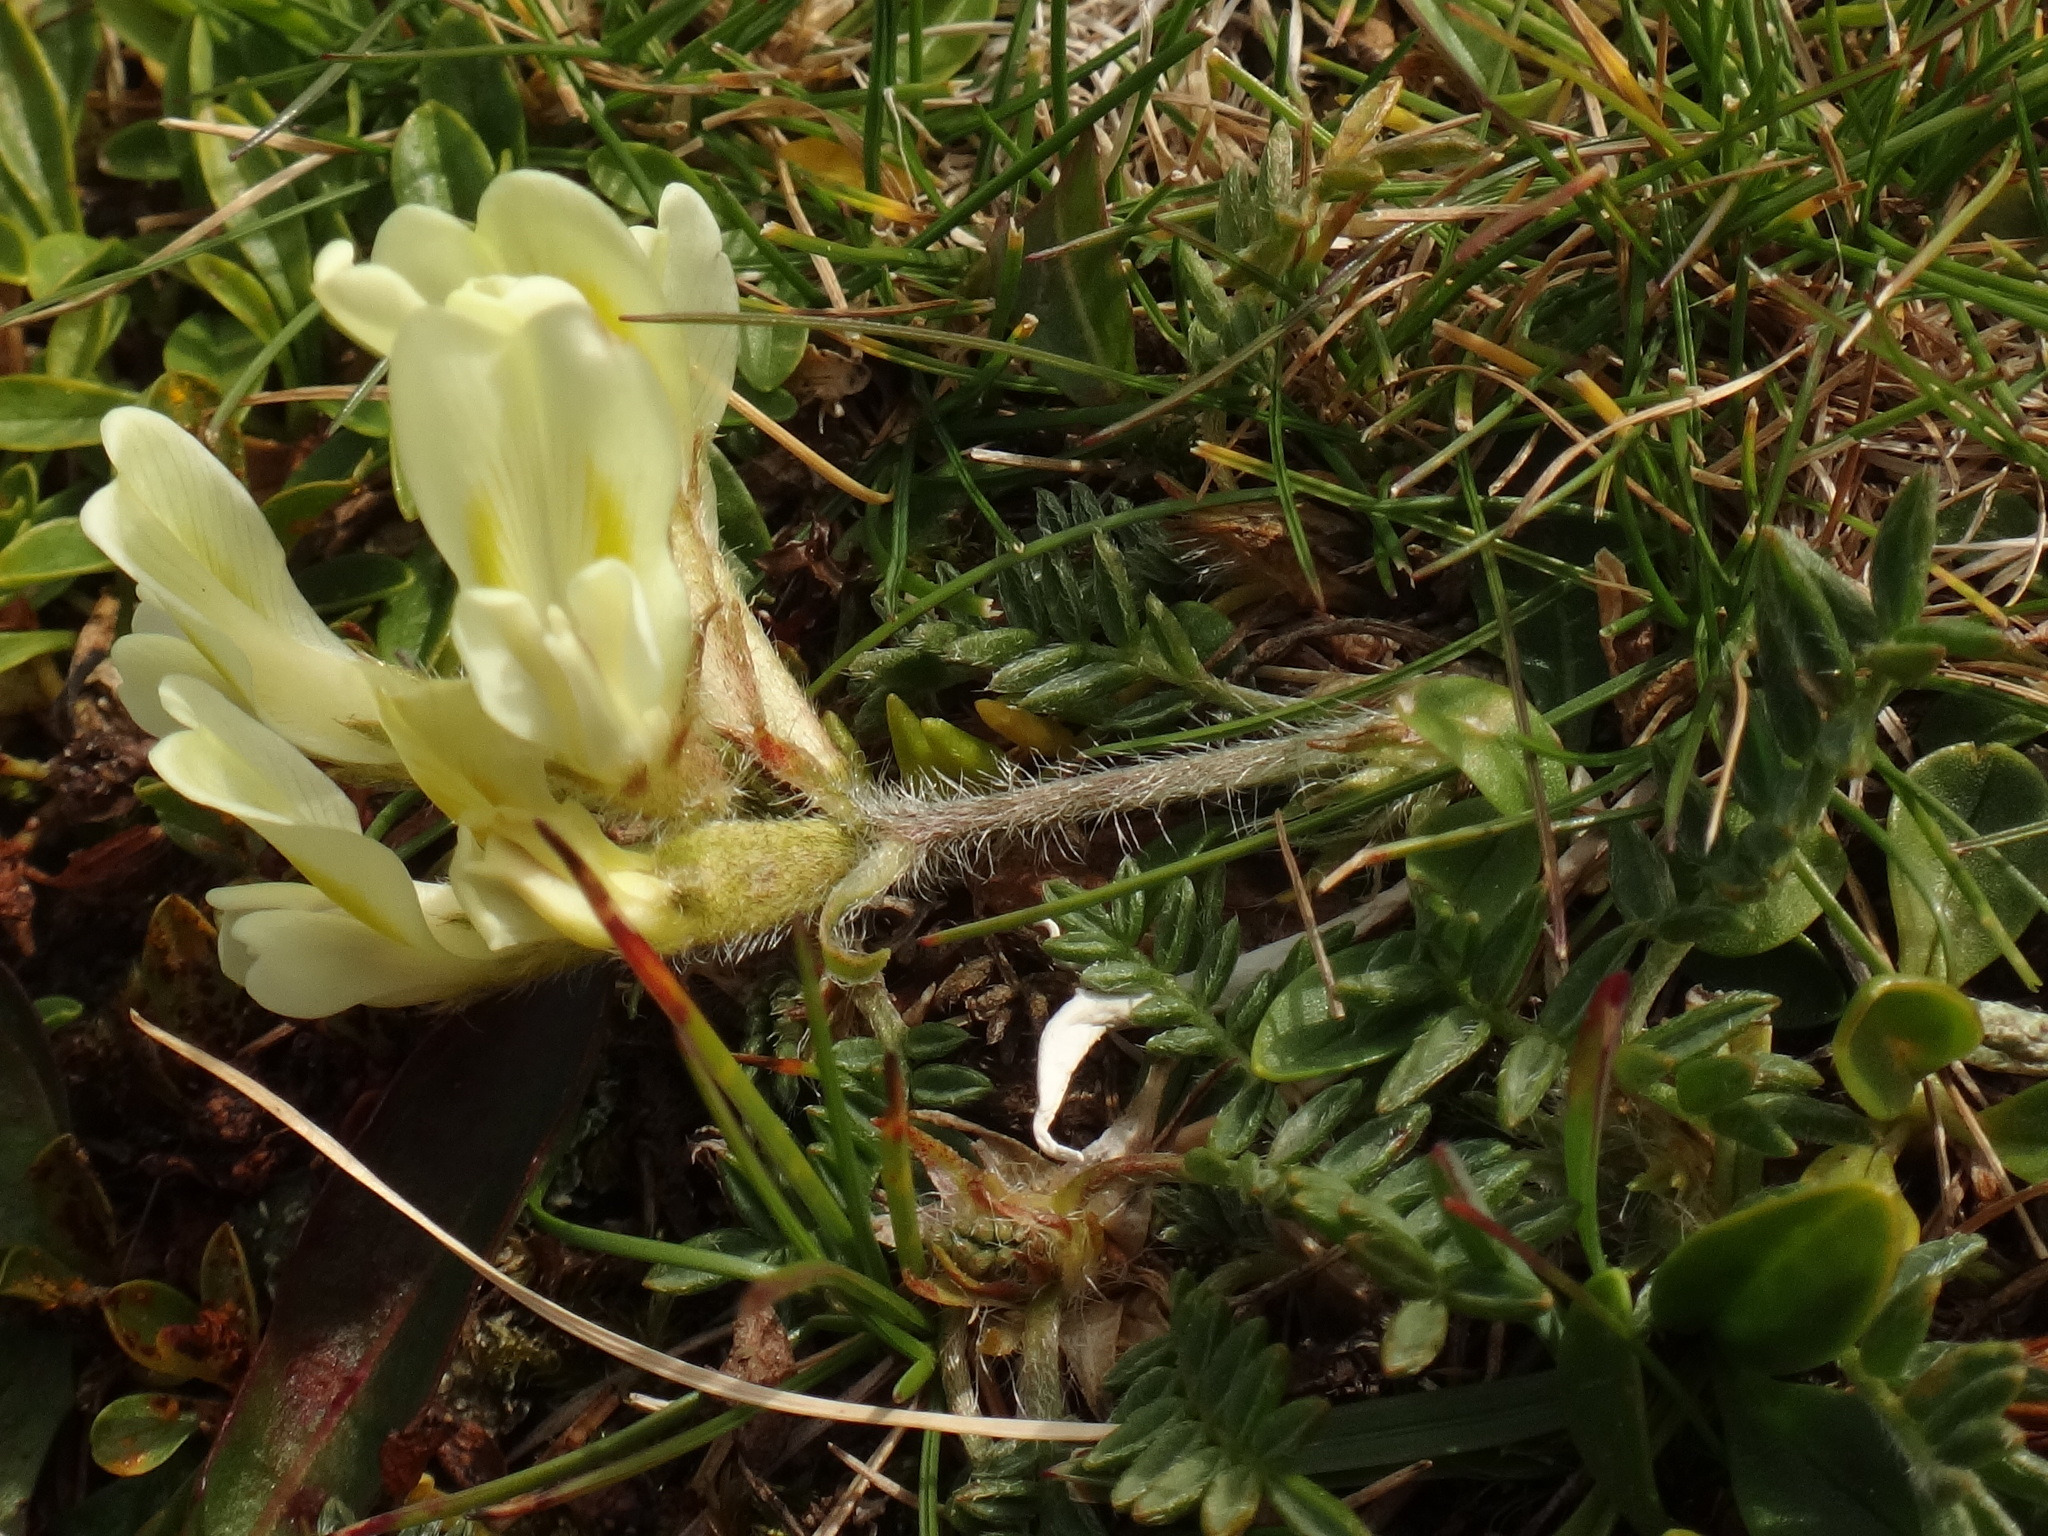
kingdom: Plantae
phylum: Tracheophyta
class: Magnoliopsida
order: Fabales
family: Fabaceae
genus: Oxytropis
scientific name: Oxytropis campestris
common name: Field locoweed
